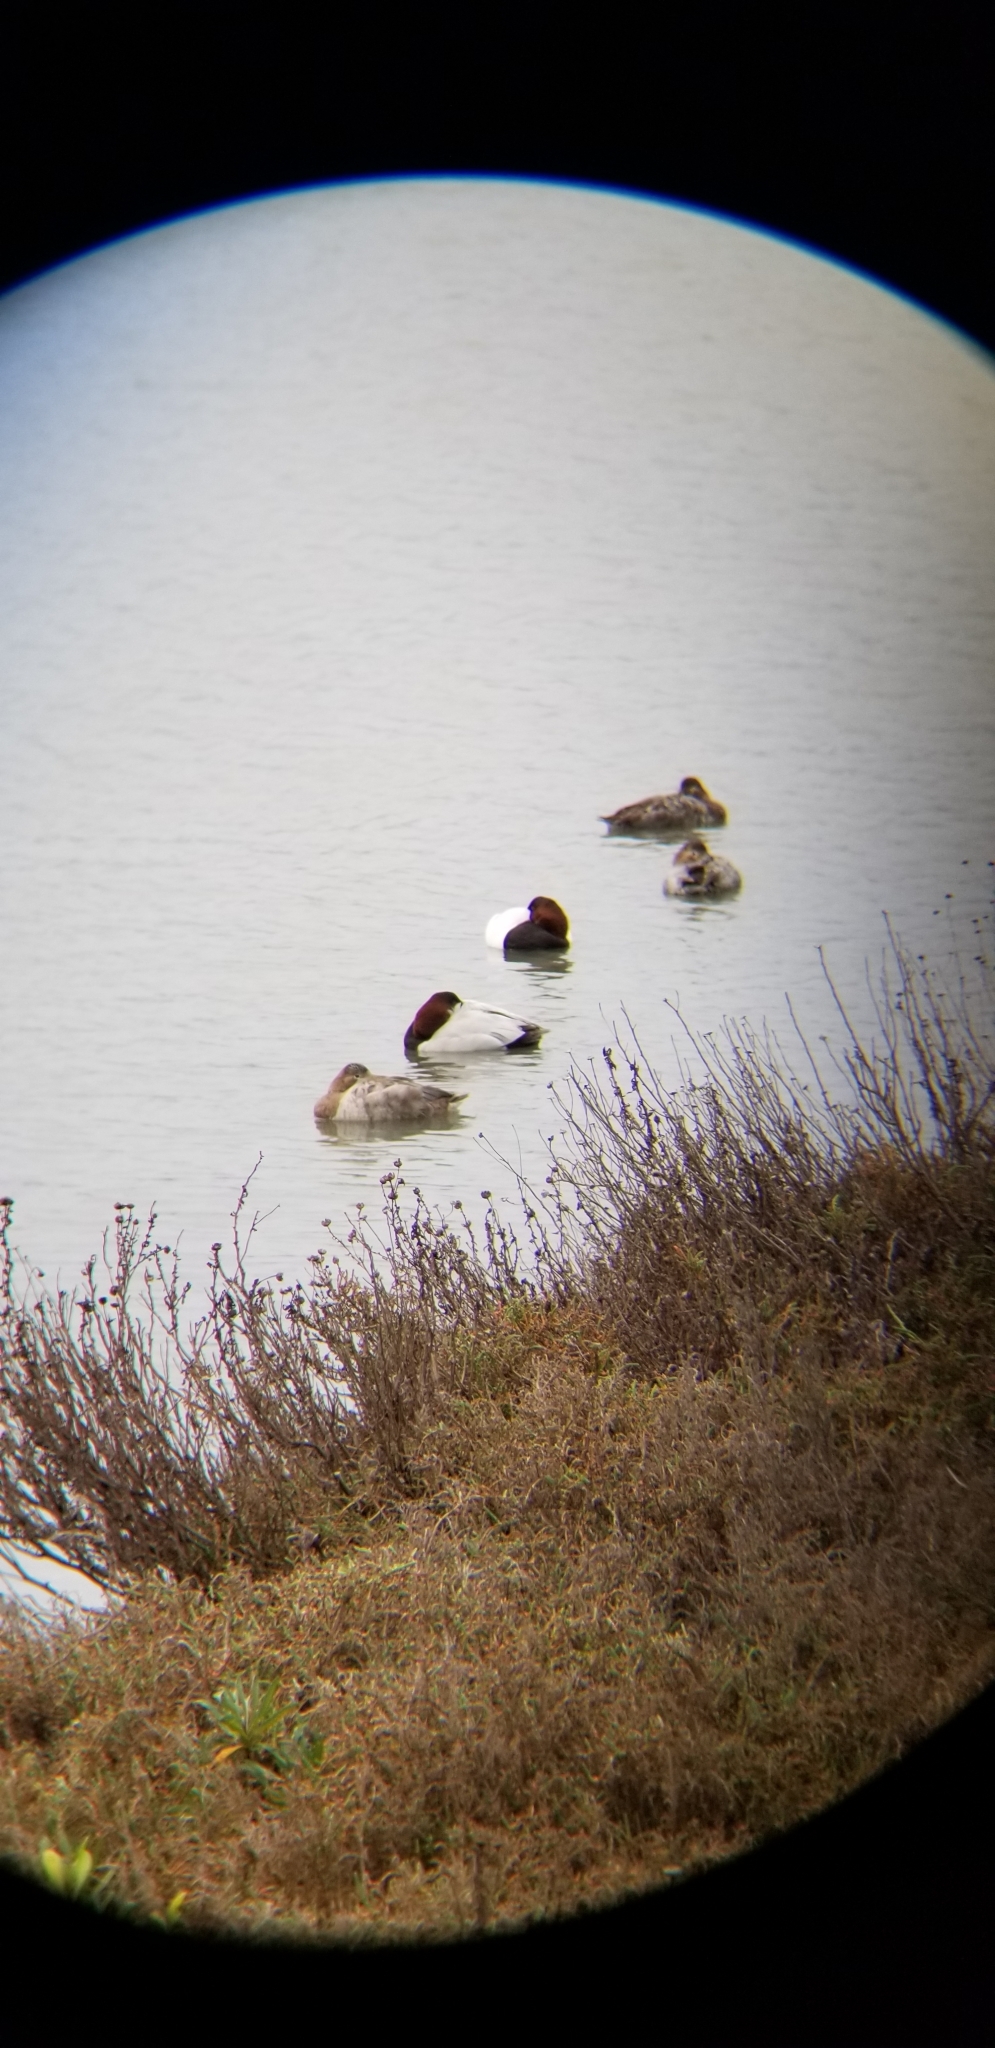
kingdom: Animalia
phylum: Chordata
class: Aves
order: Anseriformes
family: Anatidae
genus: Aythya
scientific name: Aythya valisineria
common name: Canvasback
